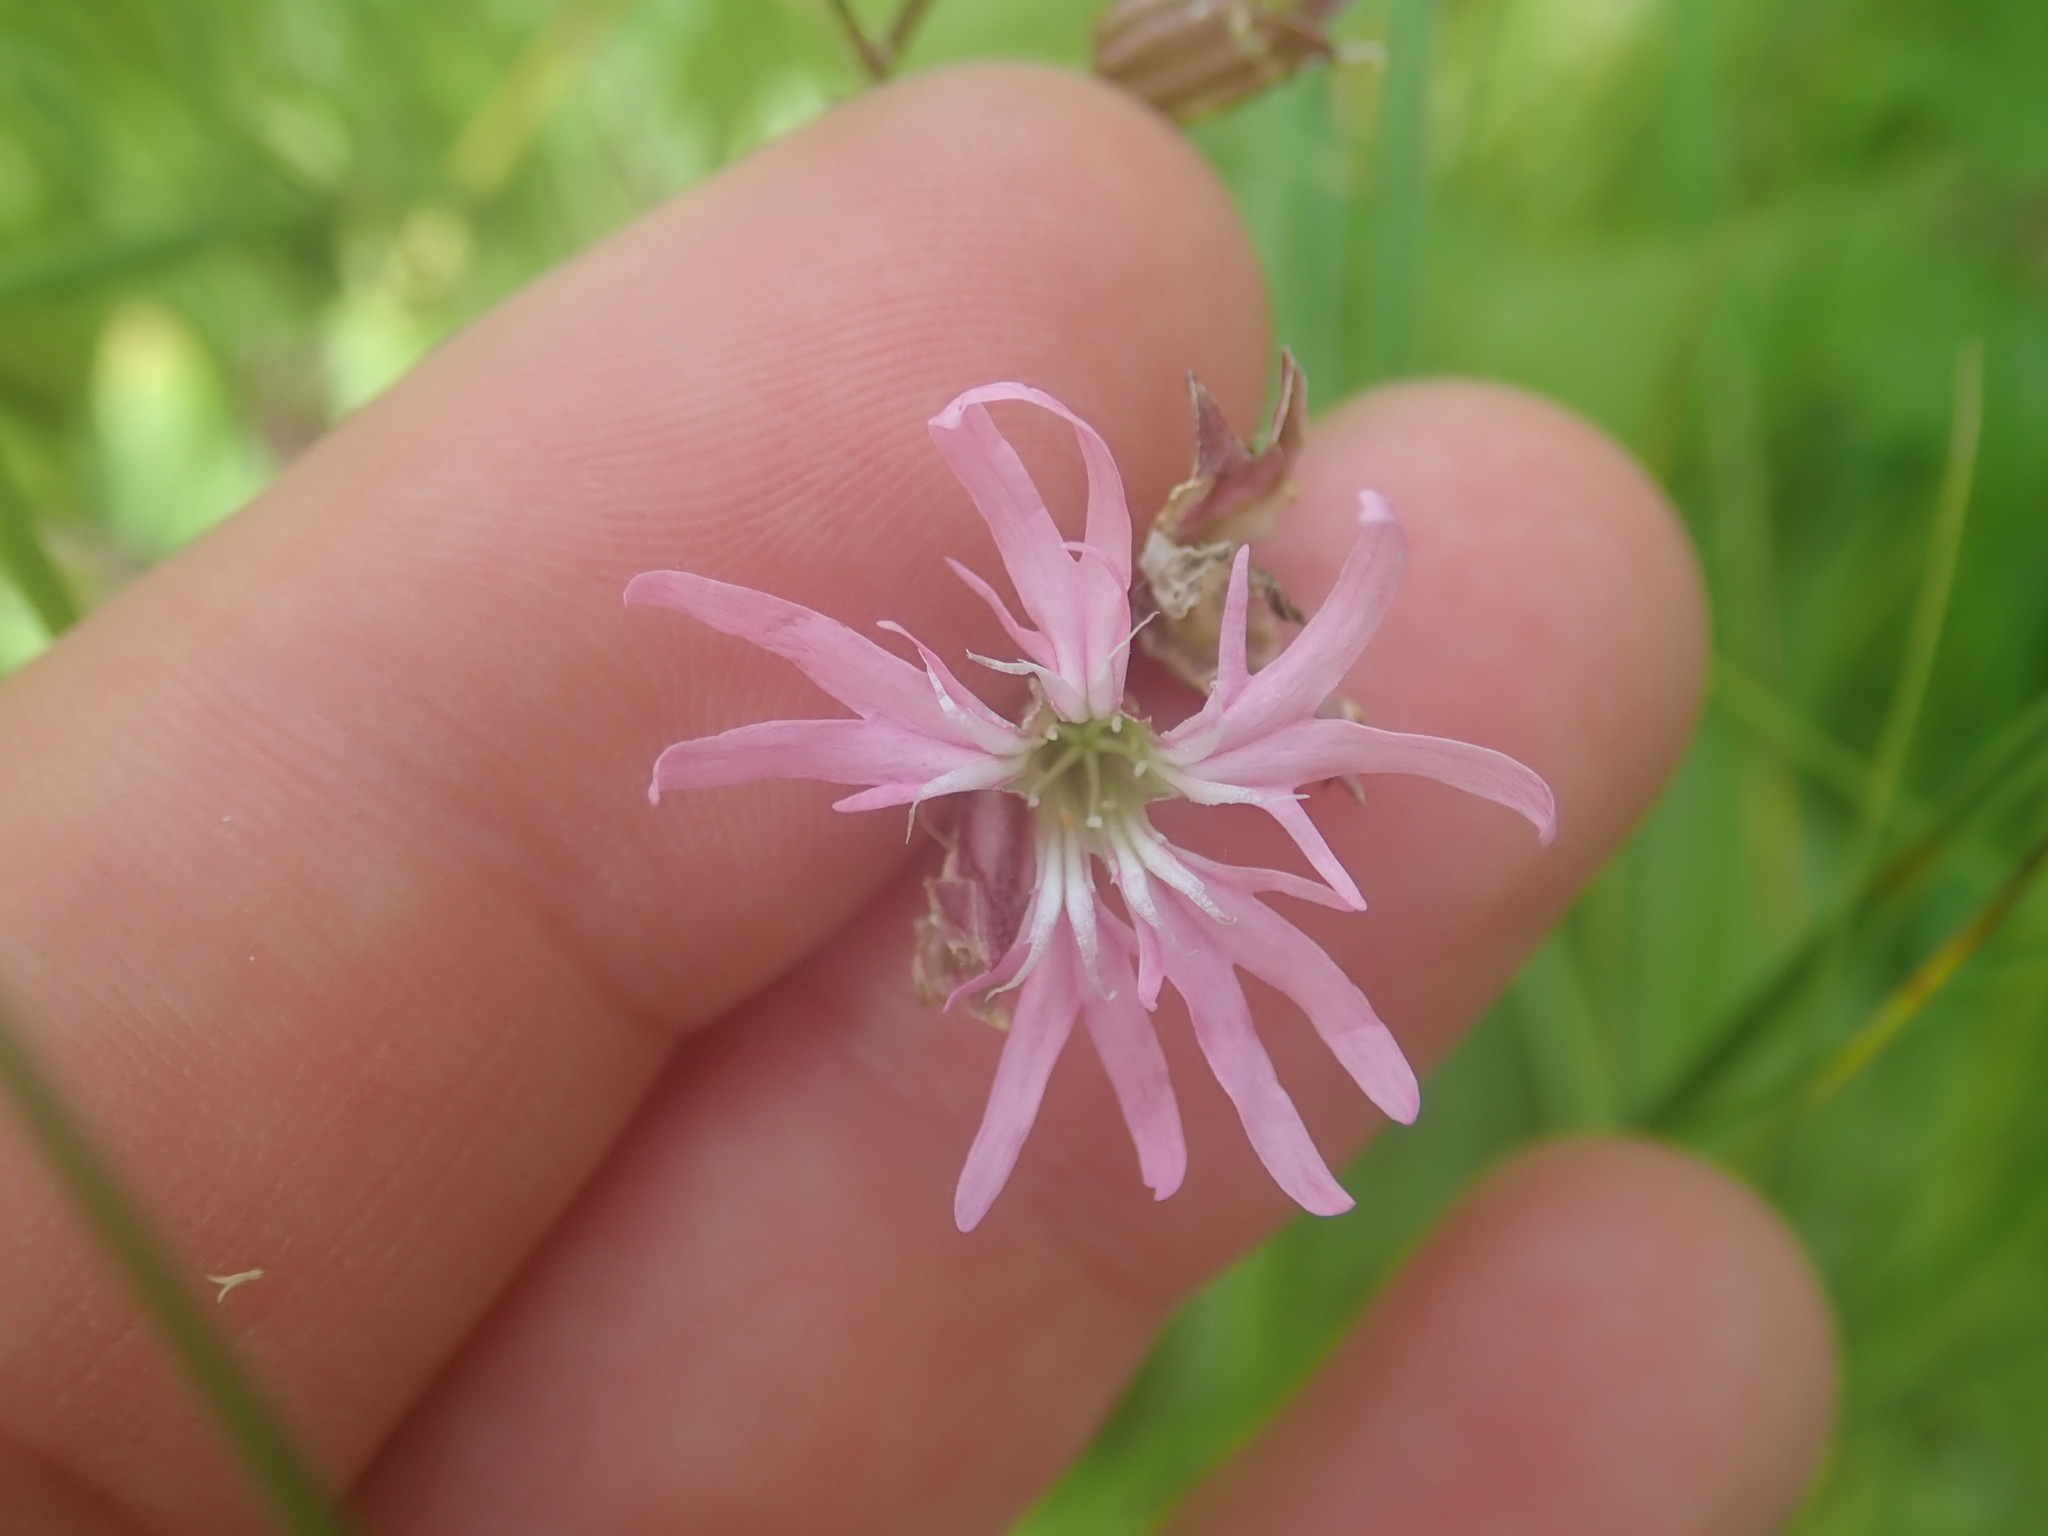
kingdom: Plantae
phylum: Tracheophyta
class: Magnoliopsida
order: Caryophyllales
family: Caryophyllaceae
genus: Silene
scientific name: Silene flos-cuculi
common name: Ragged-robin
